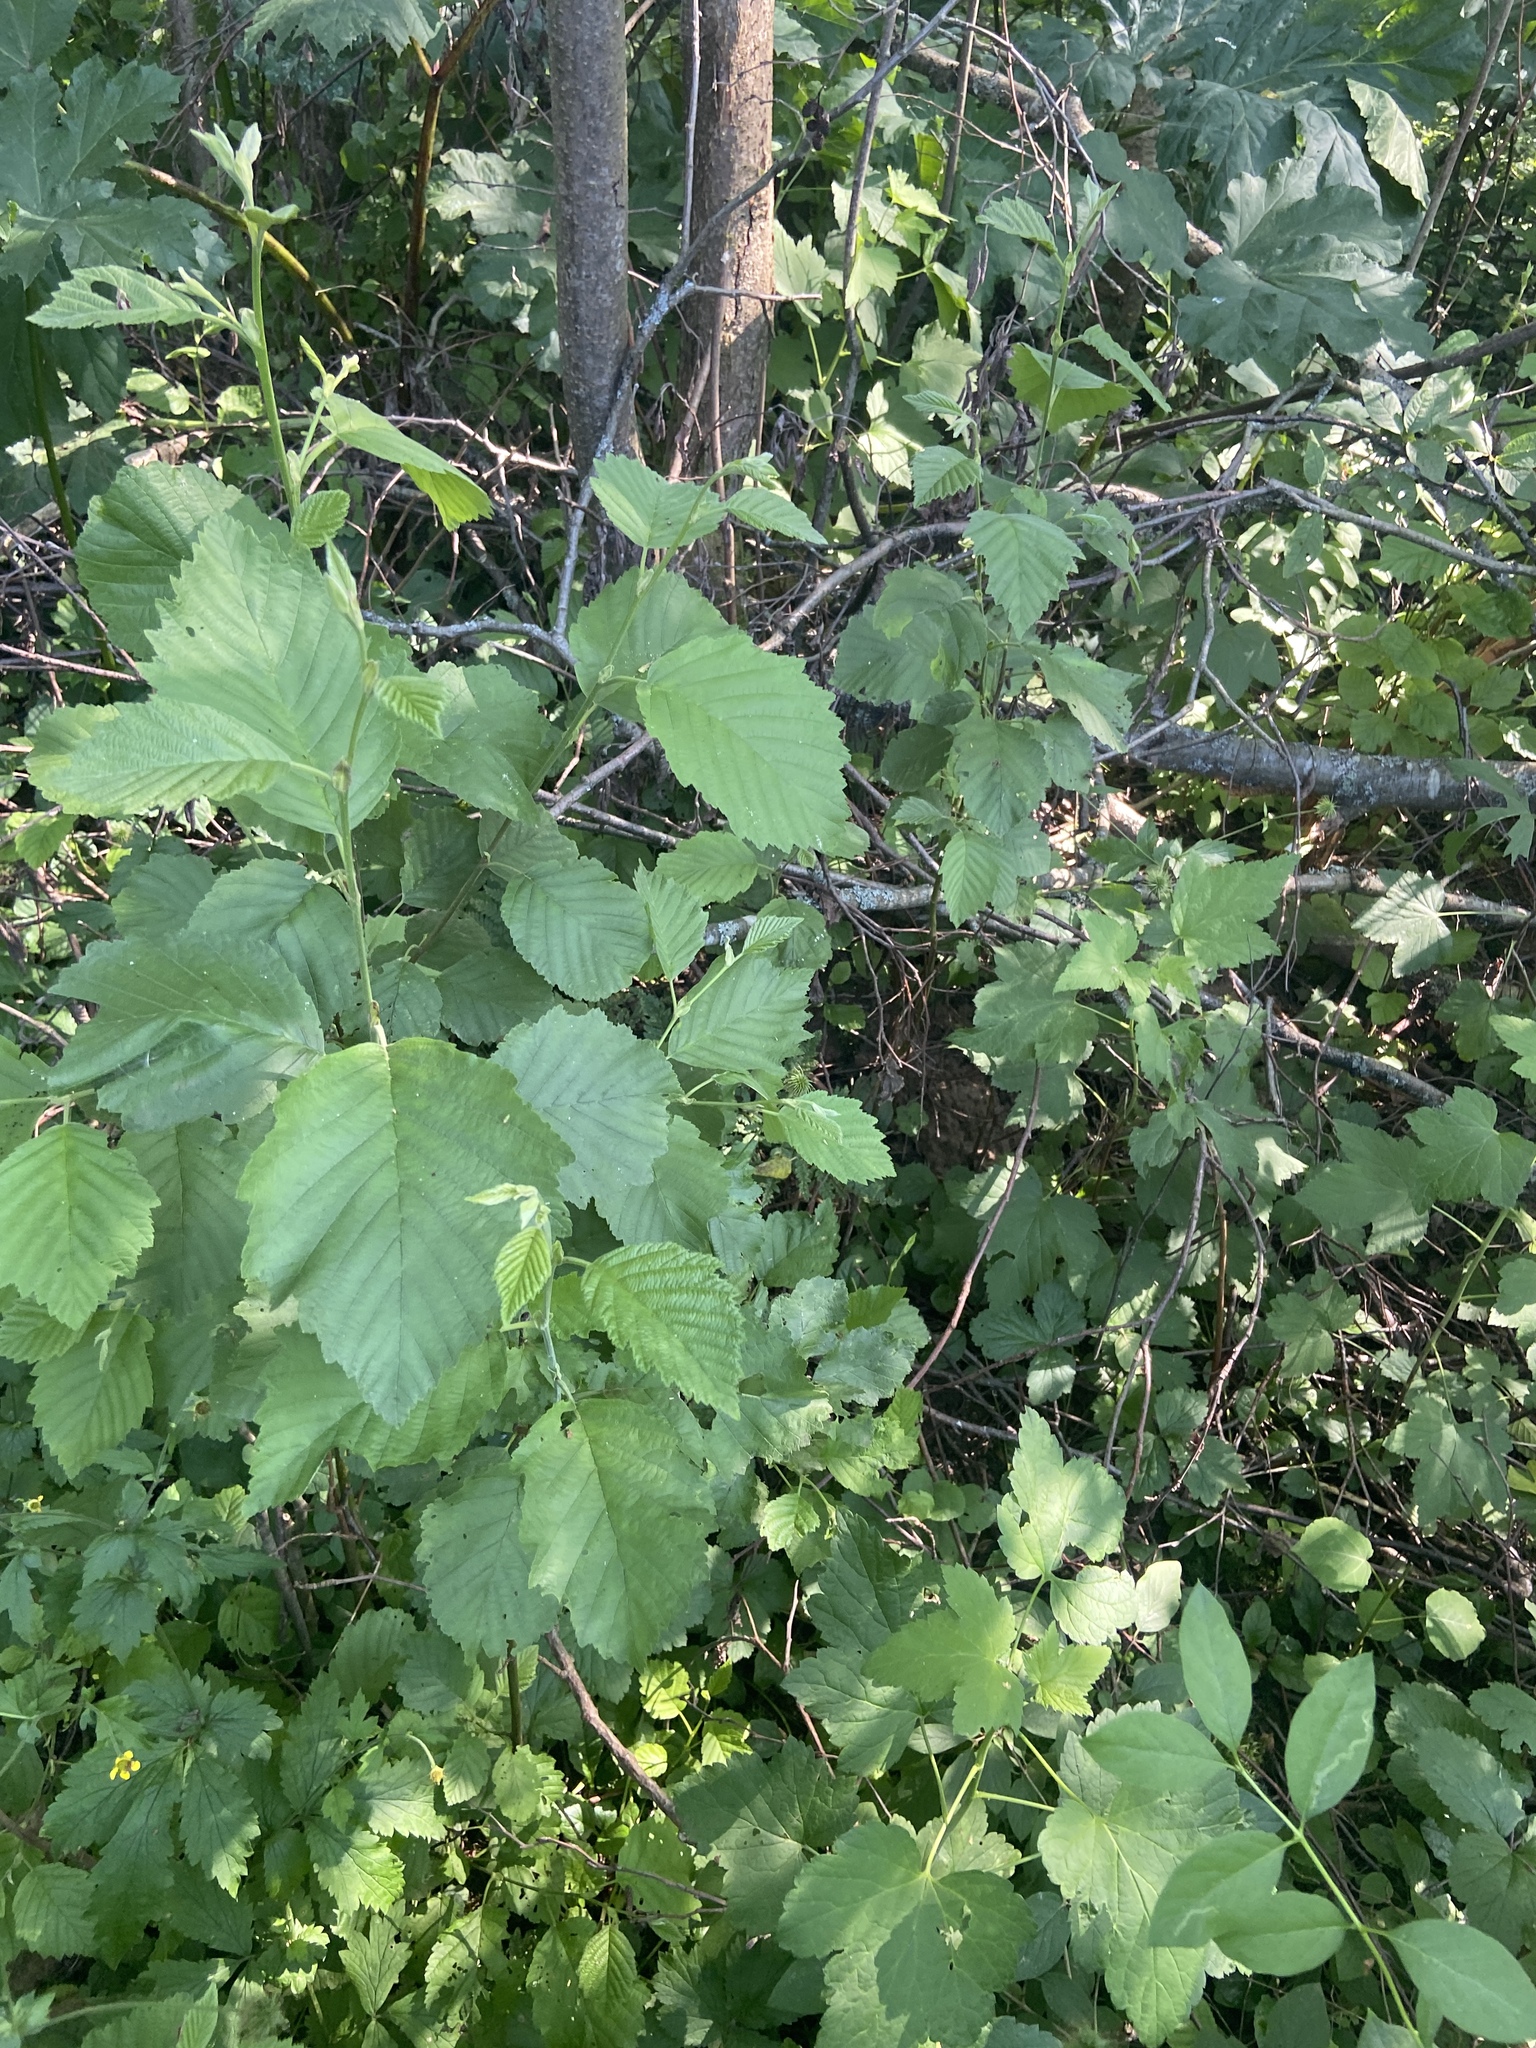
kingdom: Plantae
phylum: Tracheophyta
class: Magnoliopsida
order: Fagales
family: Betulaceae
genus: Alnus
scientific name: Alnus incana
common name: Grey alder
